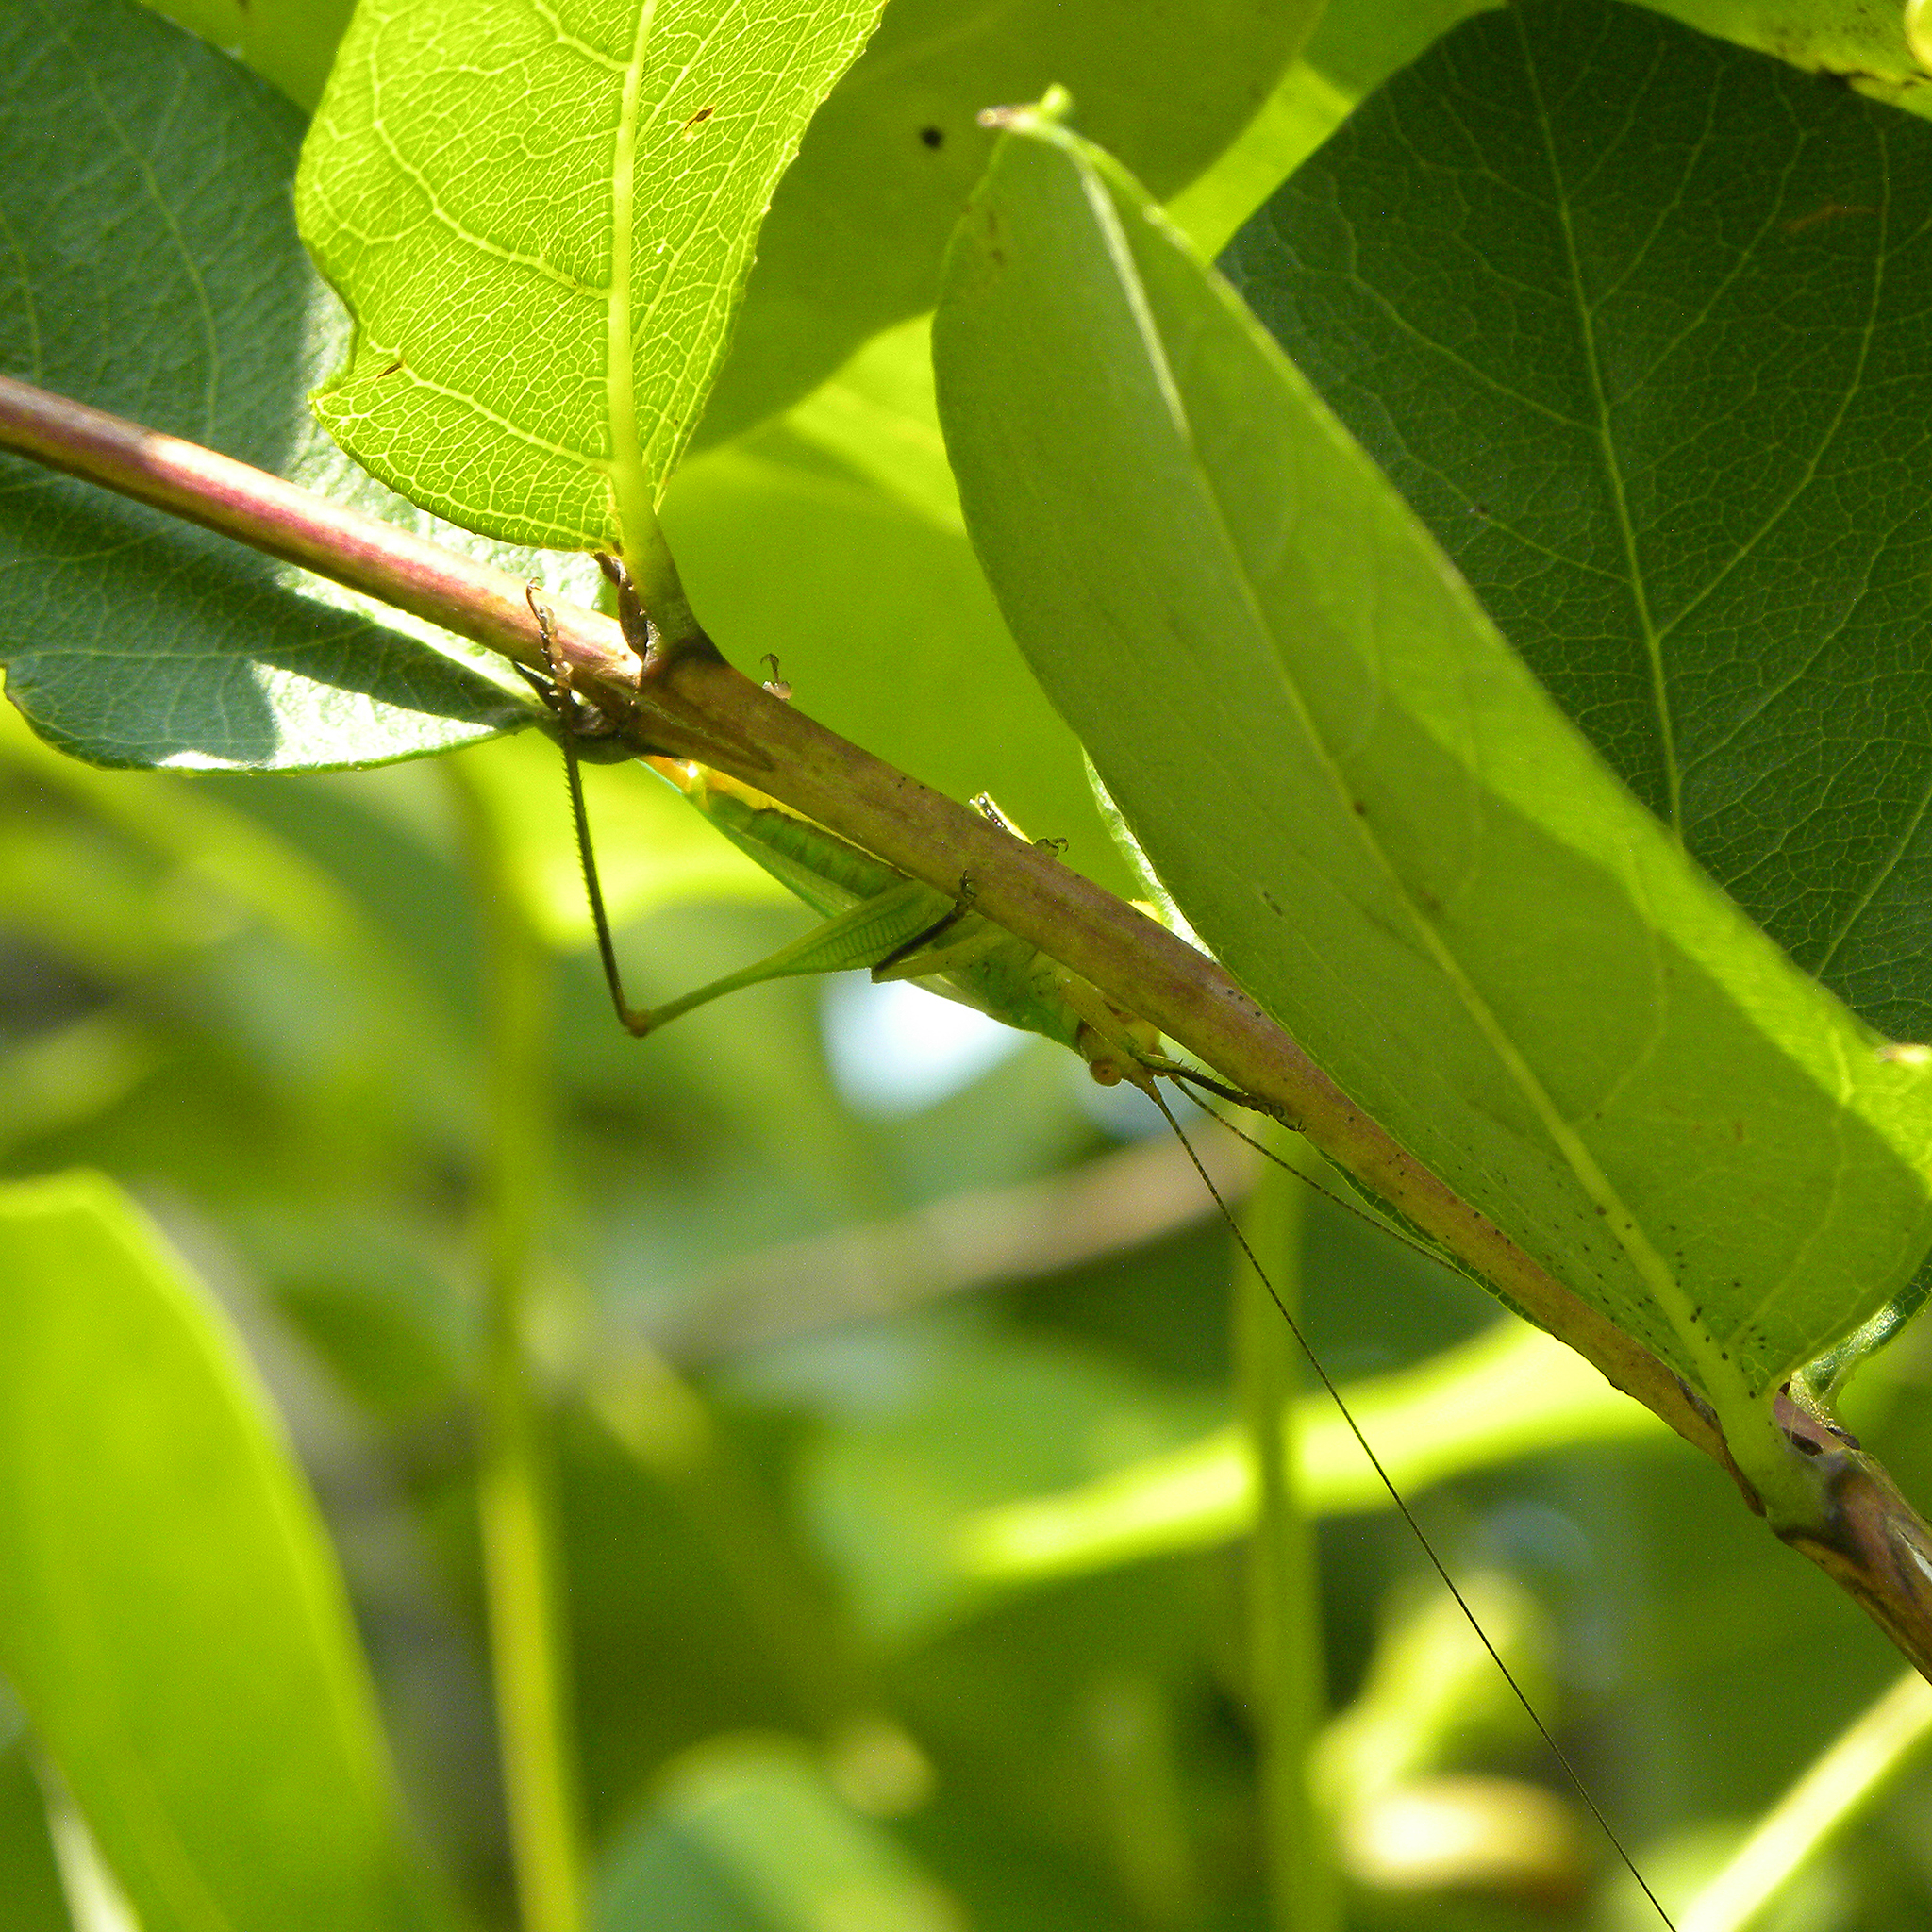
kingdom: Animalia
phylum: Arthropoda
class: Insecta
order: Orthoptera
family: Tettigoniidae
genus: Orchelimum
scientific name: Orchelimum nigripes
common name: Black-legged meadow katydid
